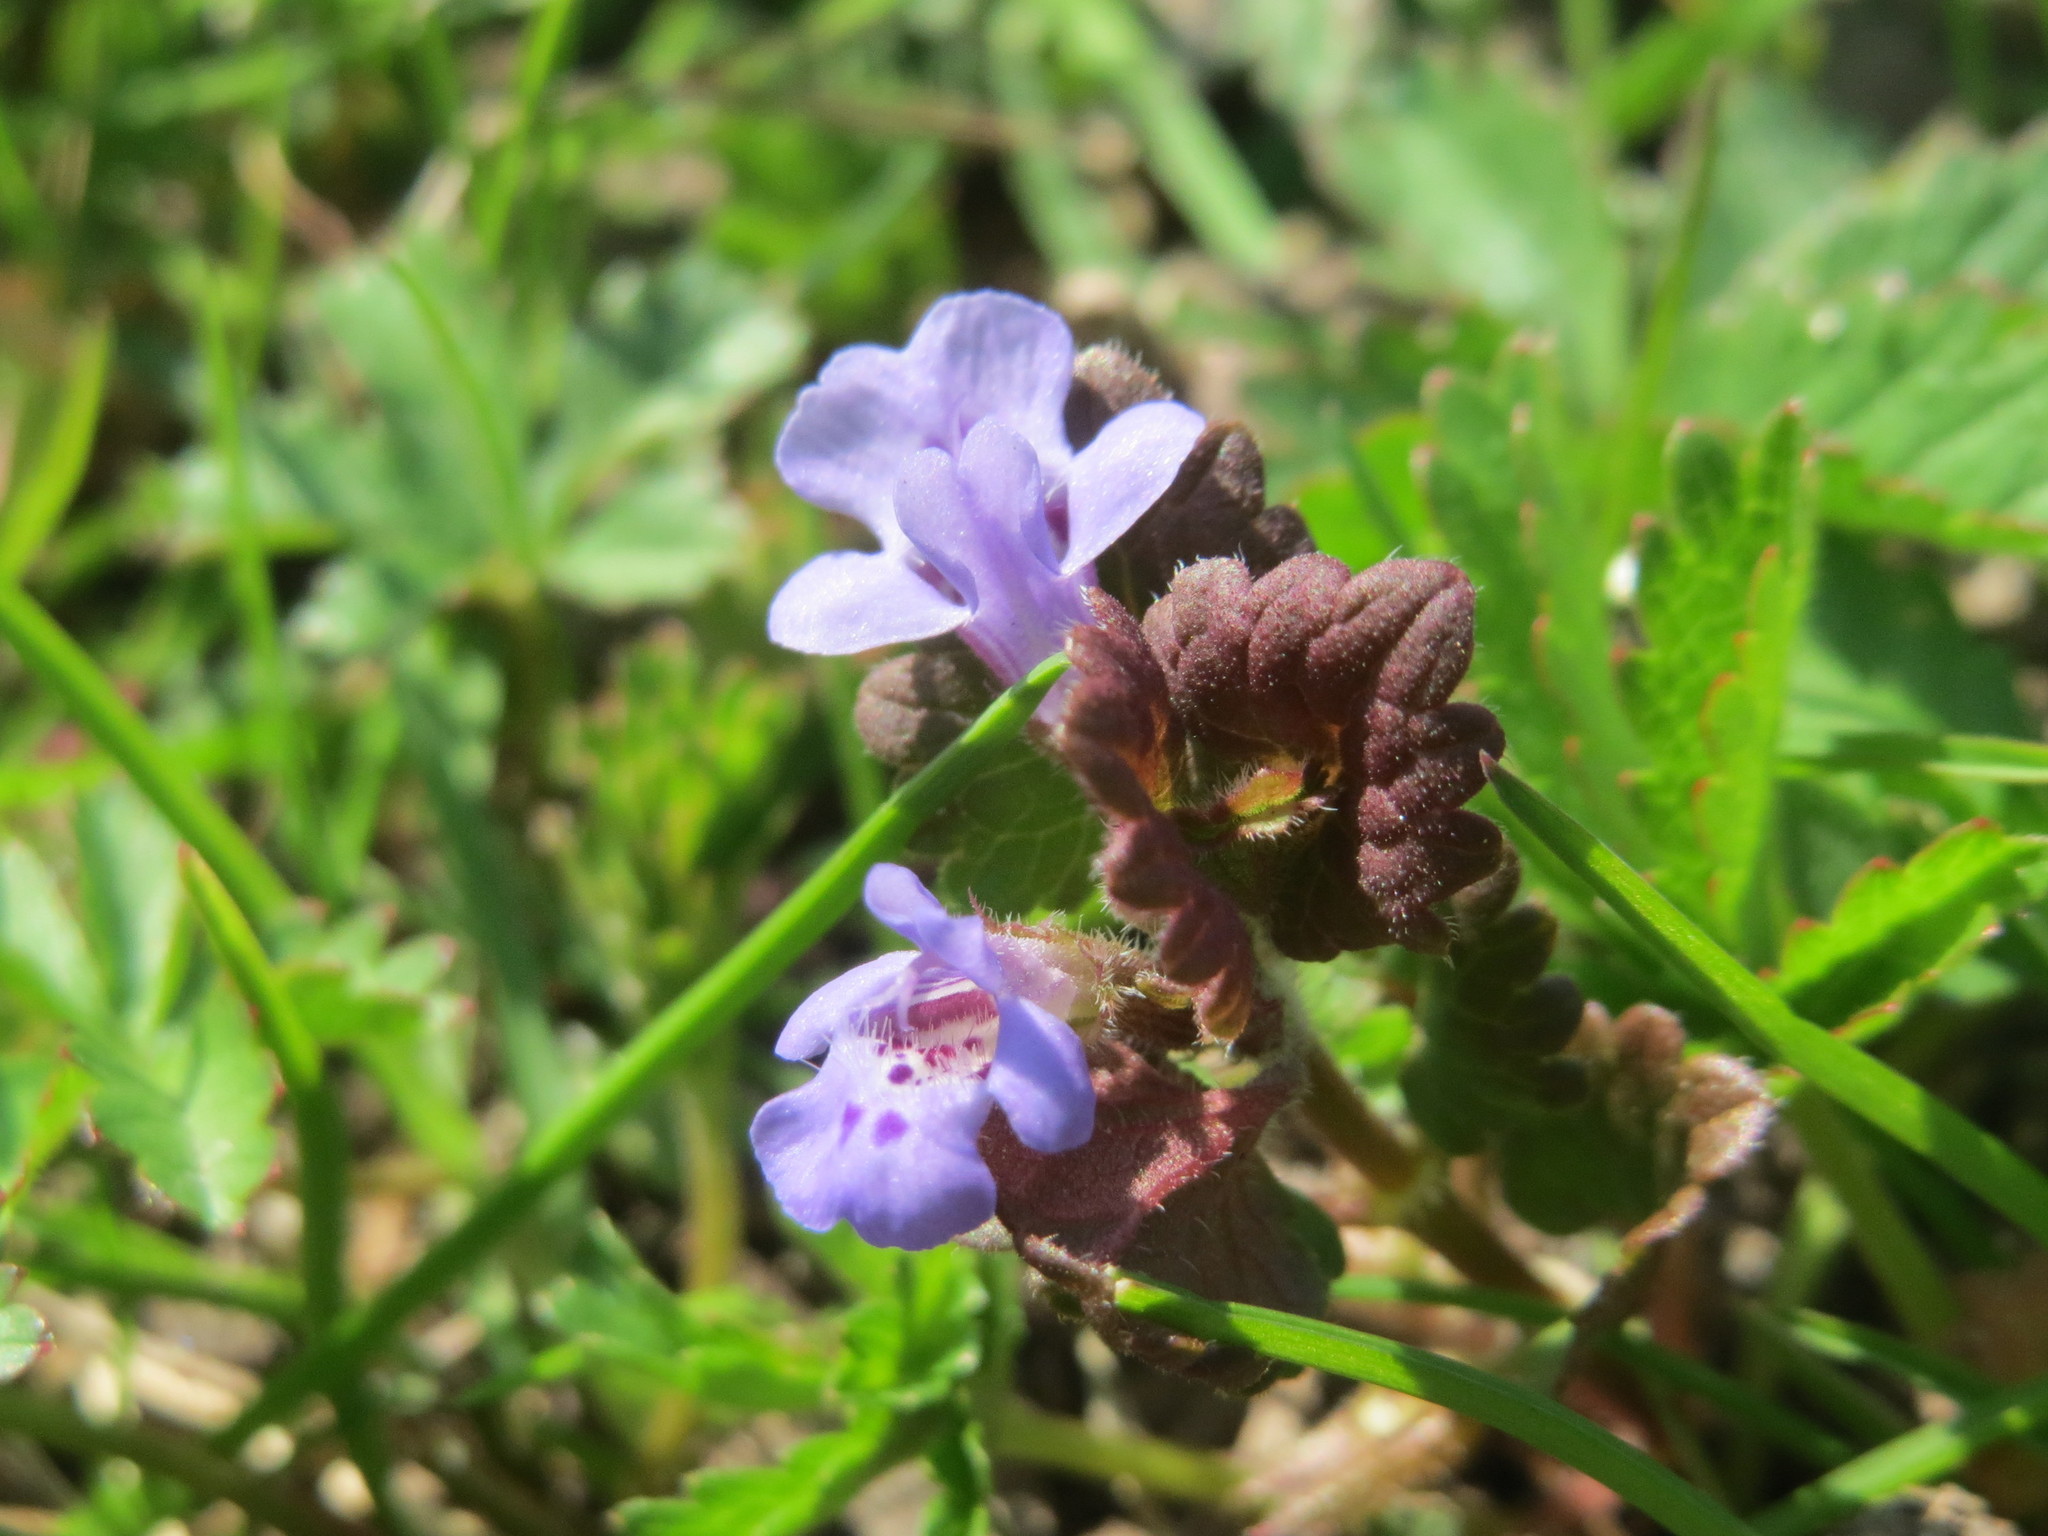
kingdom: Plantae
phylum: Tracheophyta
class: Magnoliopsida
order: Lamiales
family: Lamiaceae
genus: Glechoma
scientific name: Glechoma hederacea
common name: Ground ivy
